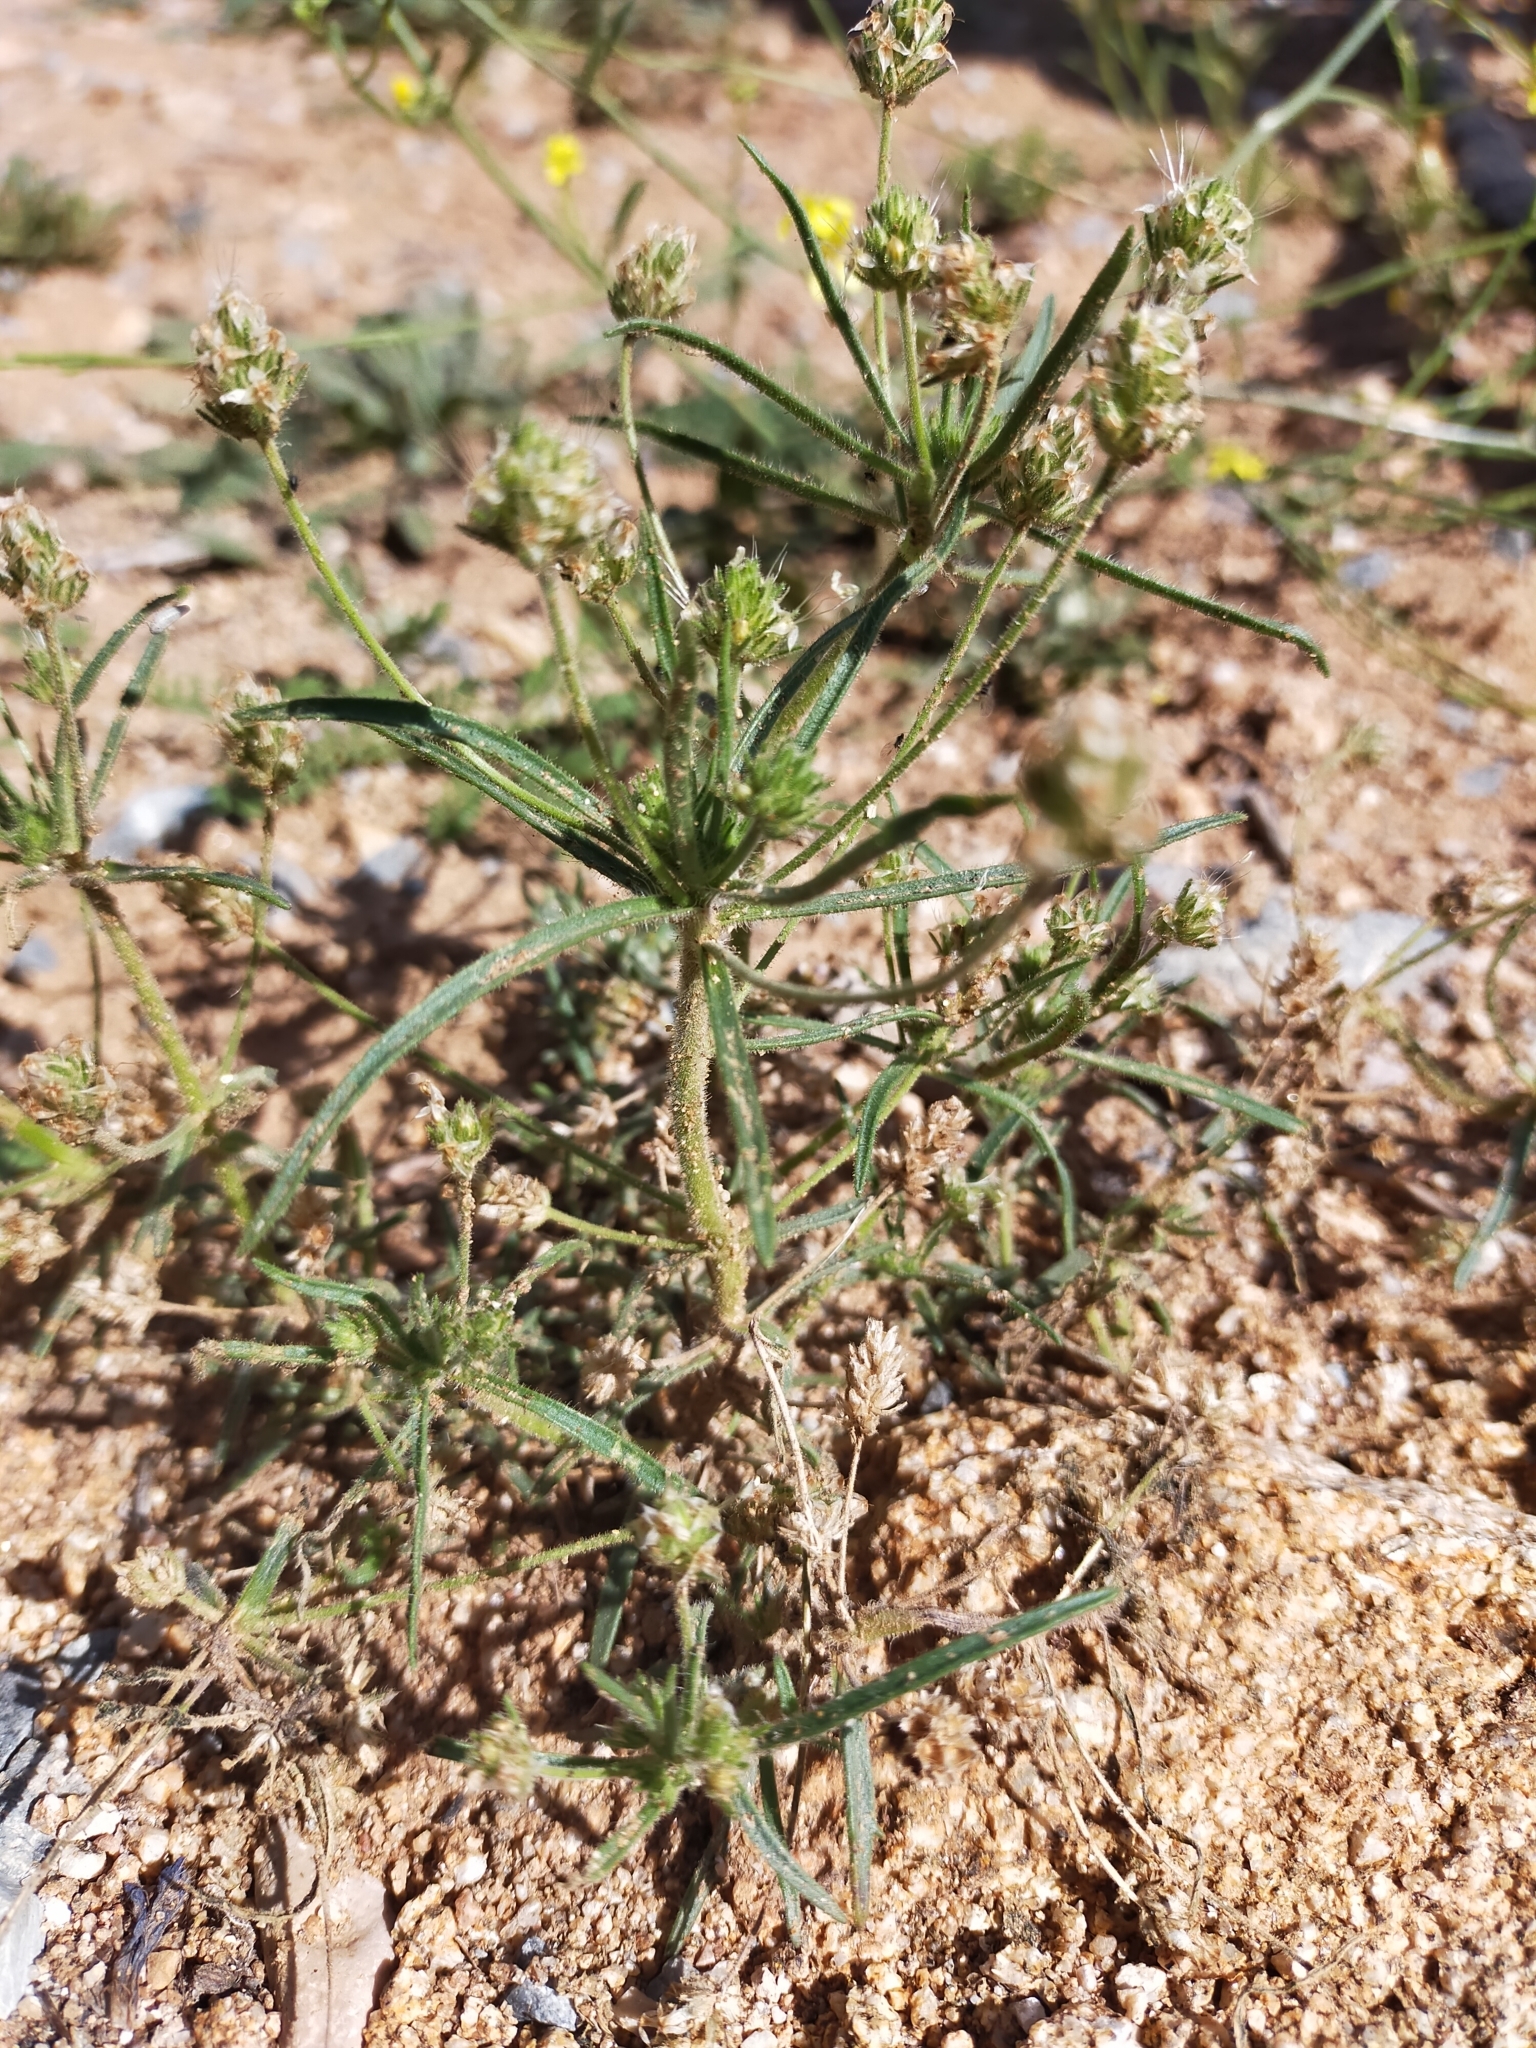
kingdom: Plantae
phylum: Tracheophyta
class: Magnoliopsida
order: Lamiales
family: Plantaginaceae
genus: Plantago
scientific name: Plantago afra
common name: Glandular plantain
